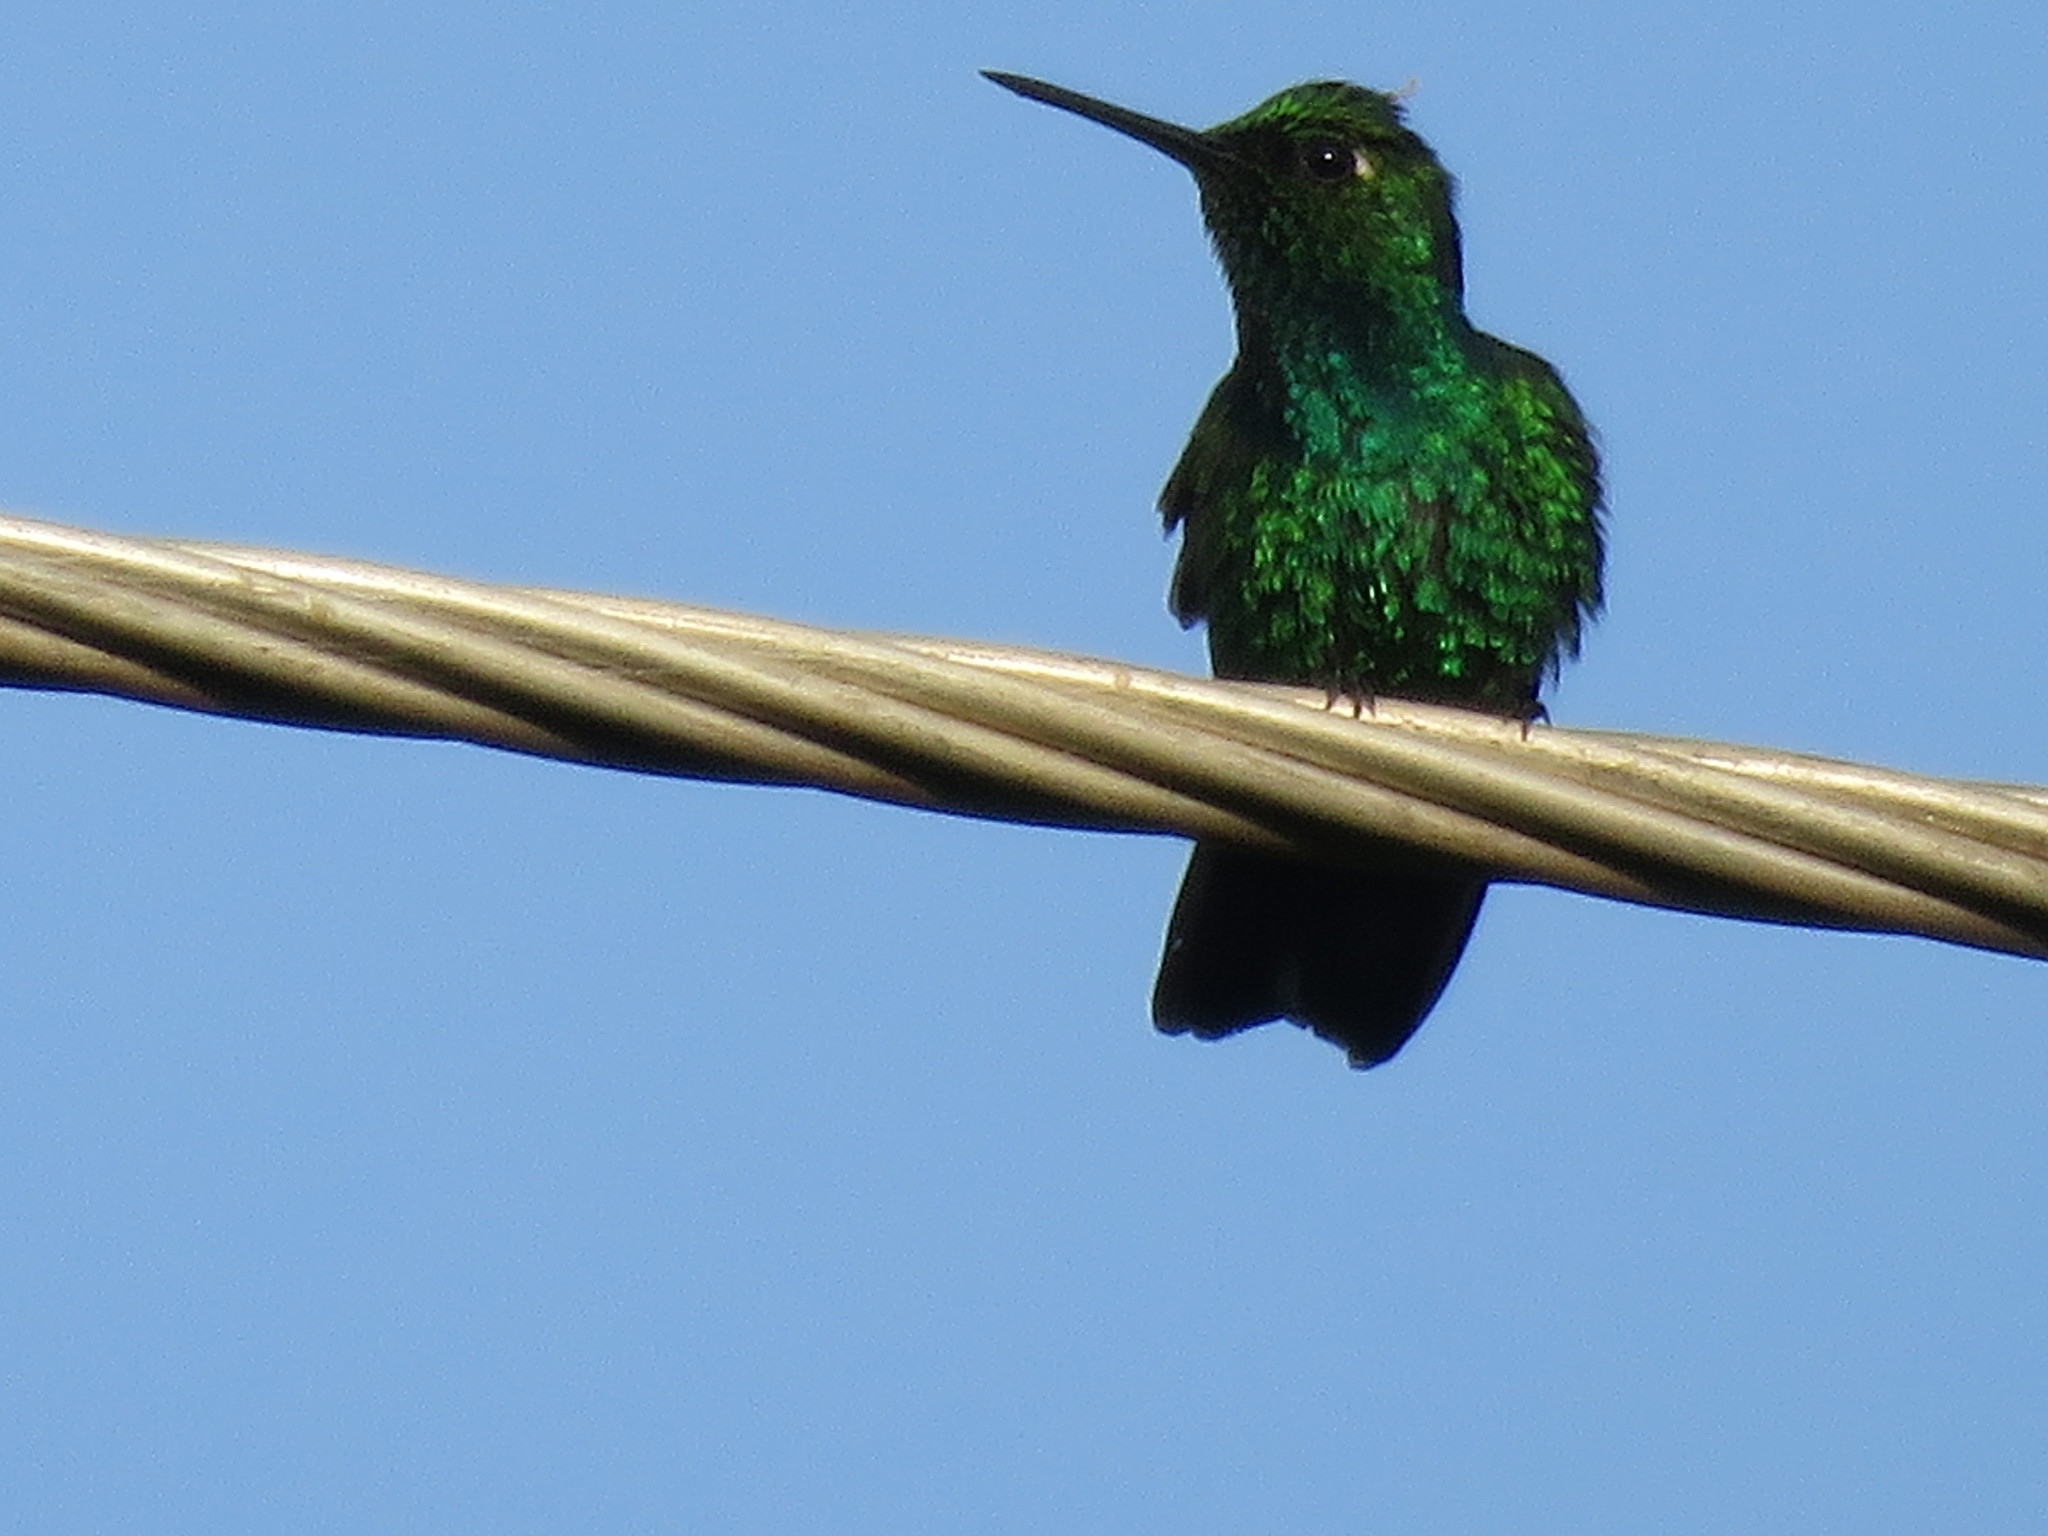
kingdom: Animalia
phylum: Chordata
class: Aves
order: Apodiformes
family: Trochilidae
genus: Chlorostilbon
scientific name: Chlorostilbon mellisugus
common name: Blue-tailed emerald
